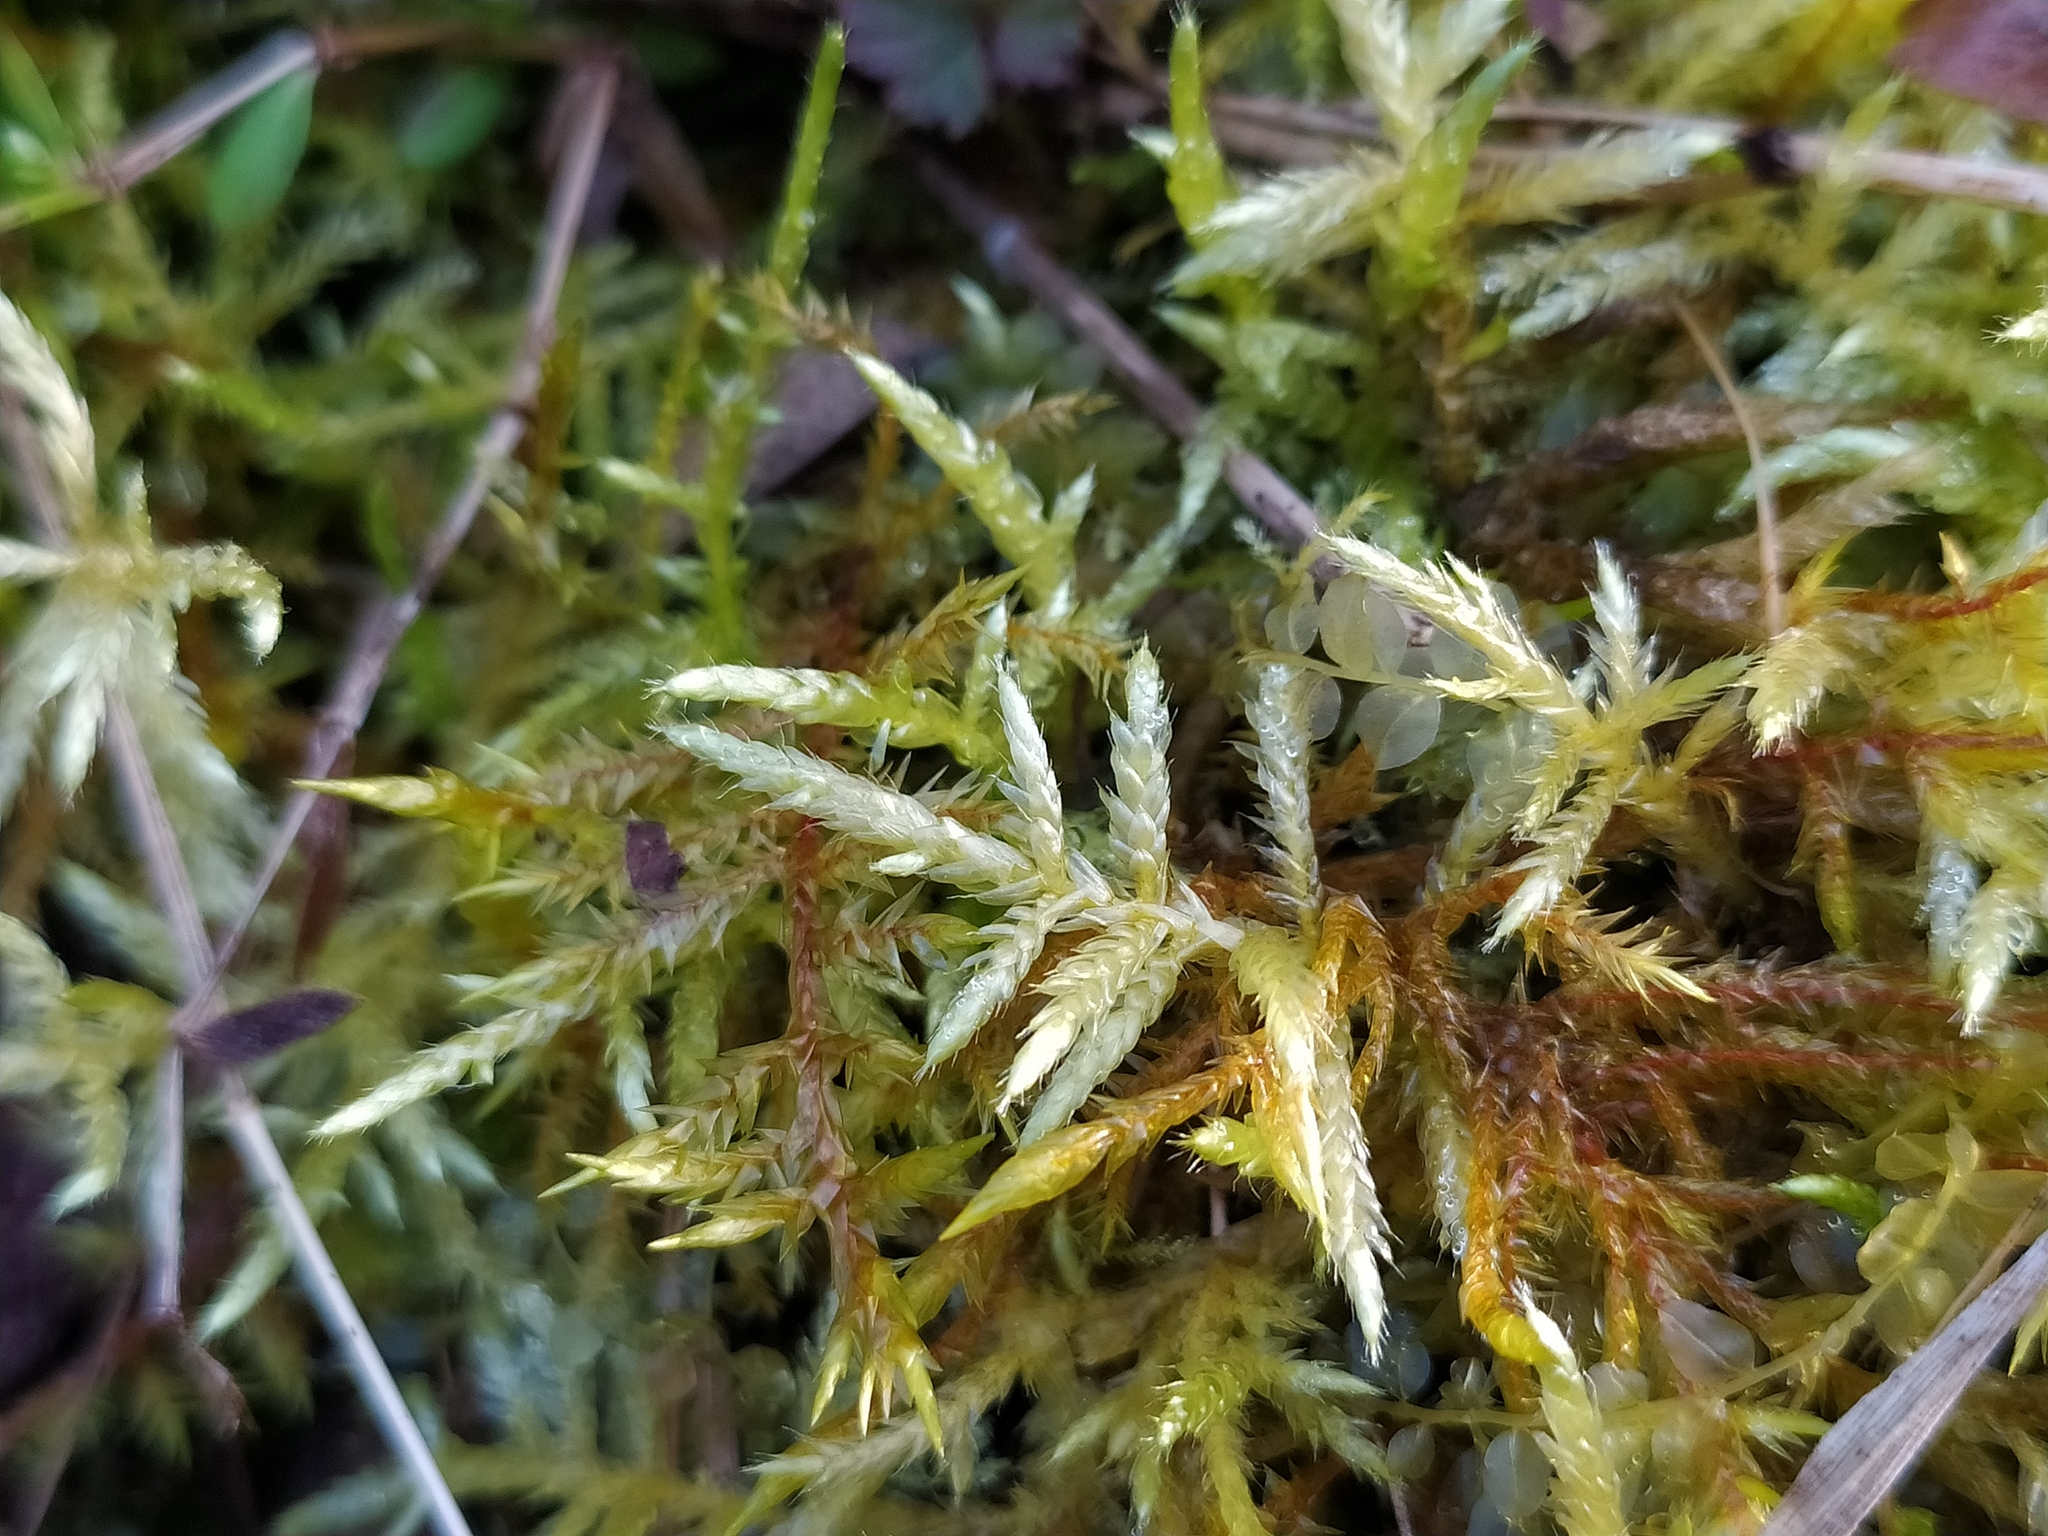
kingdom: Plantae
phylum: Bryophyta
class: Bryopsida
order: Hypnales
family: Brachytheciaceae
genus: Cirriphyllum
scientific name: Cirriphyllum piliferum
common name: Hair-pointed moss
